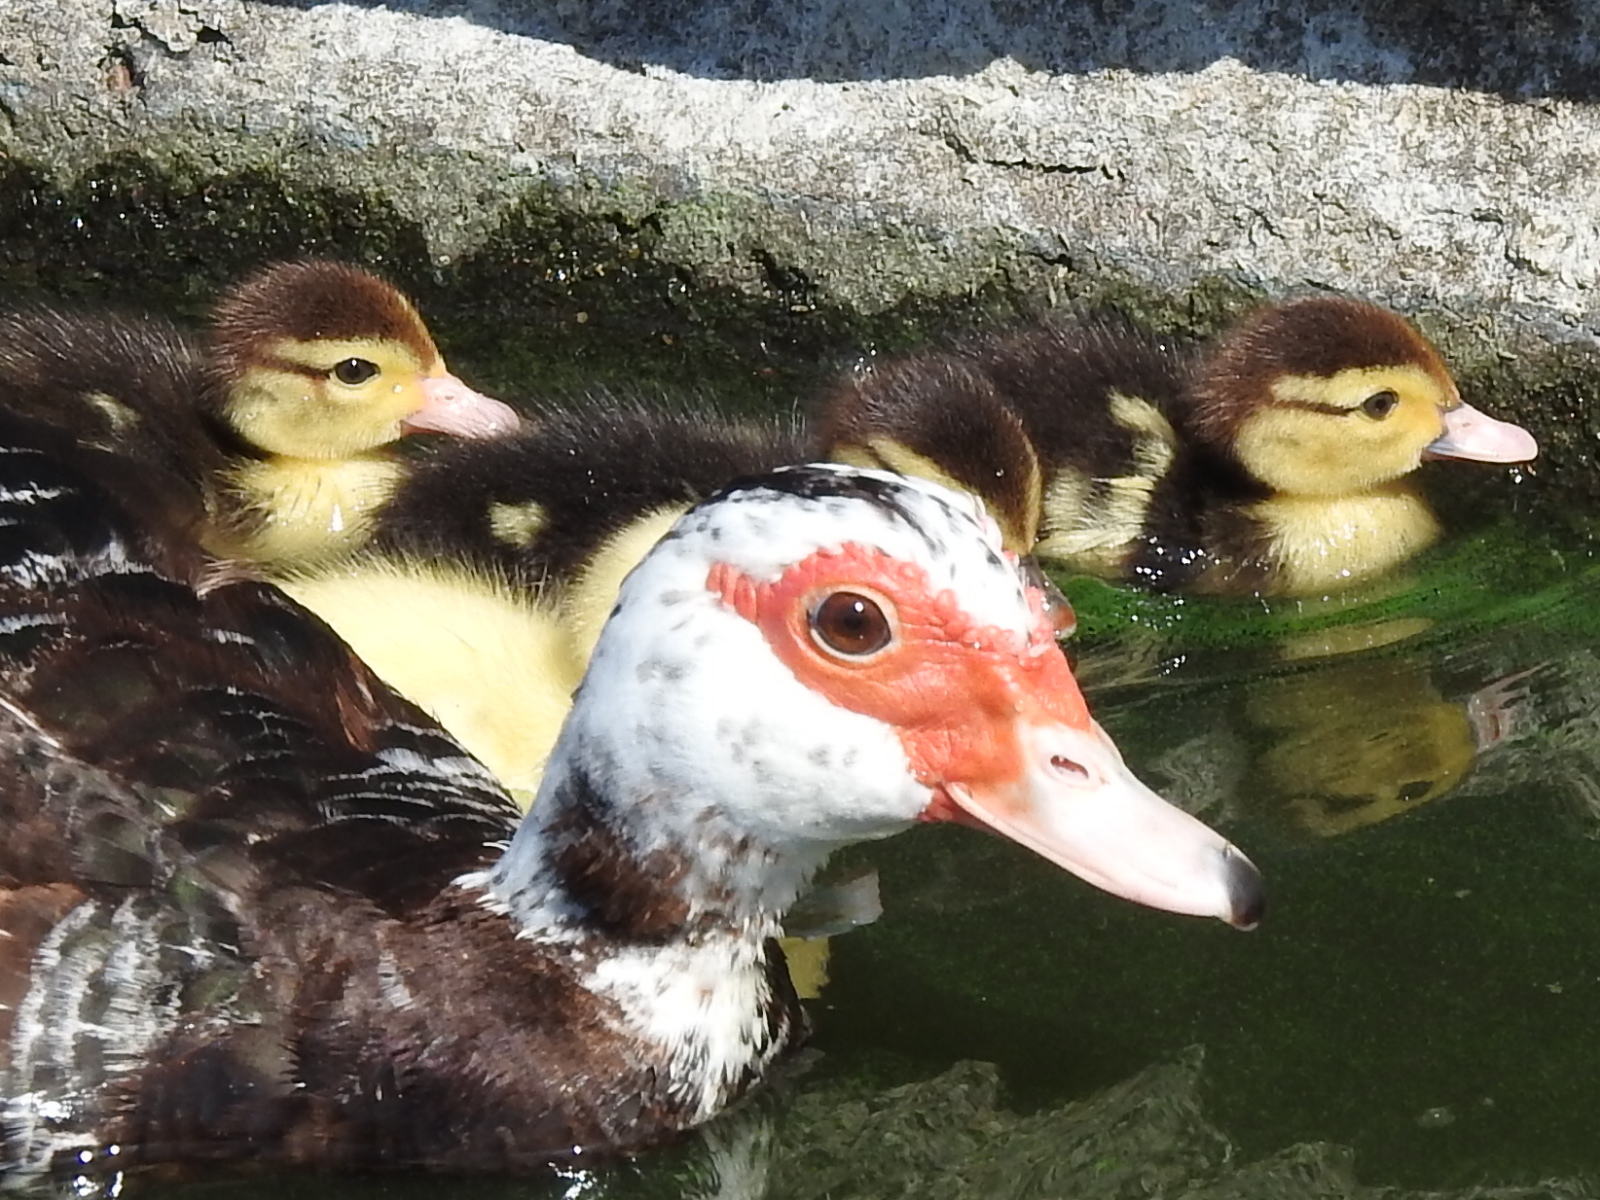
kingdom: Animalia
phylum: Chordata
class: Aves
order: Anseriformes
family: Anatidae
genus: Cairina
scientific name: Cairina moschata
